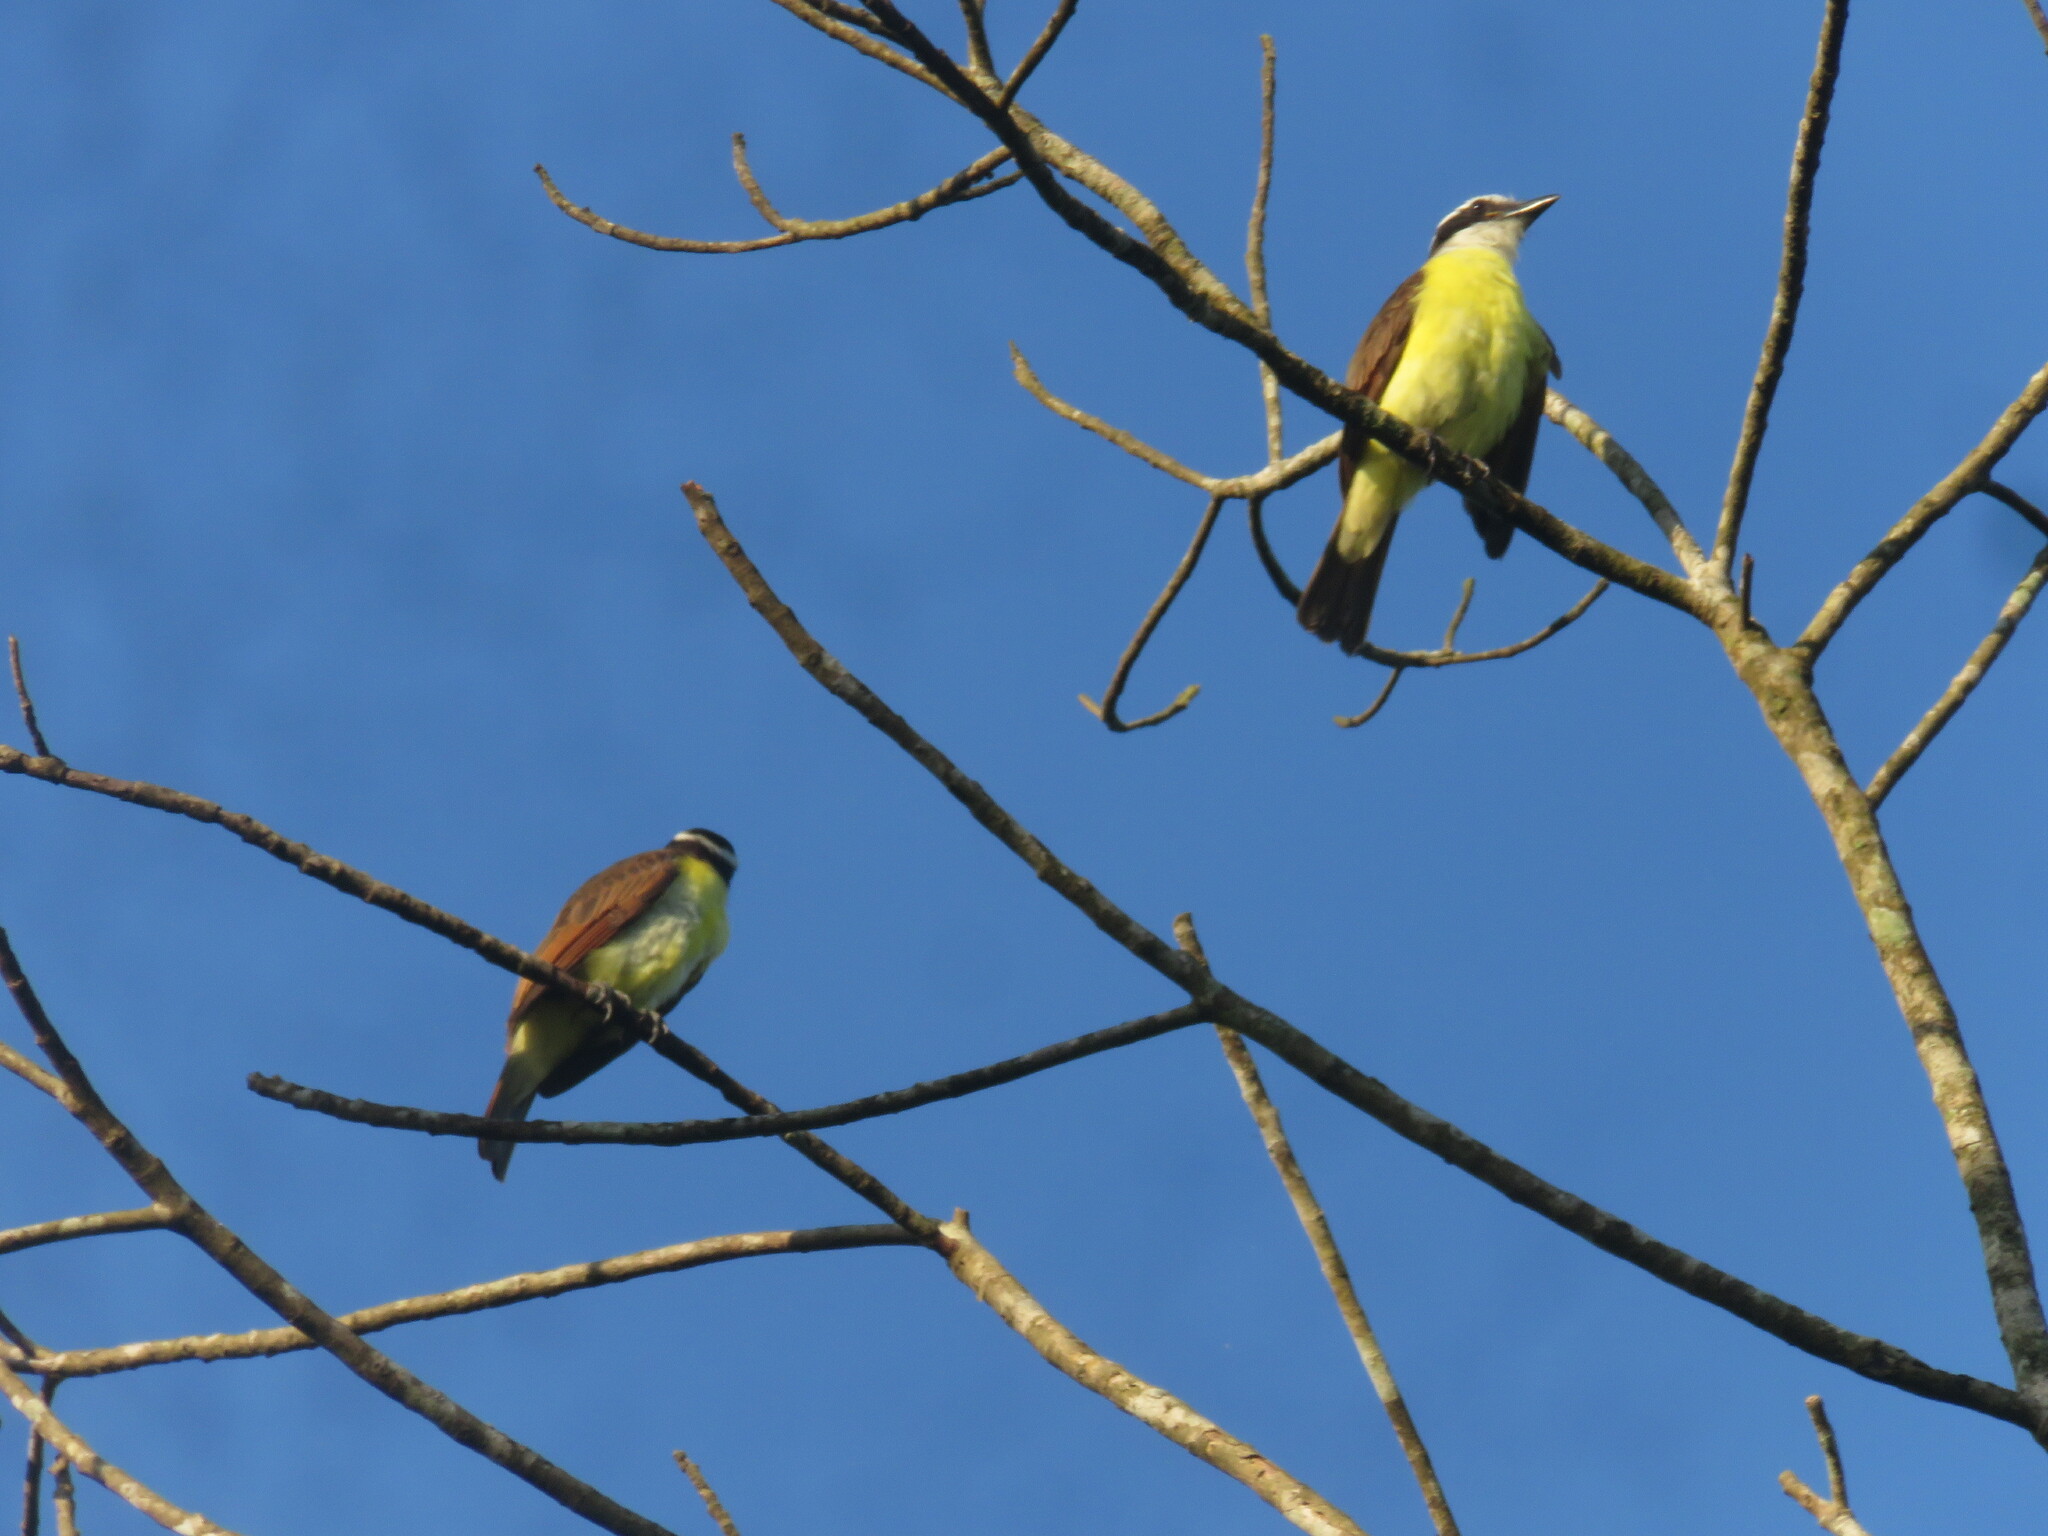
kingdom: Animalia
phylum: Chordata
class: Aves
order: Passeriformes
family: Tyrannidae
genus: Pitangus
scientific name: Pitangus sulphuratus
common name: Great kiskadee
